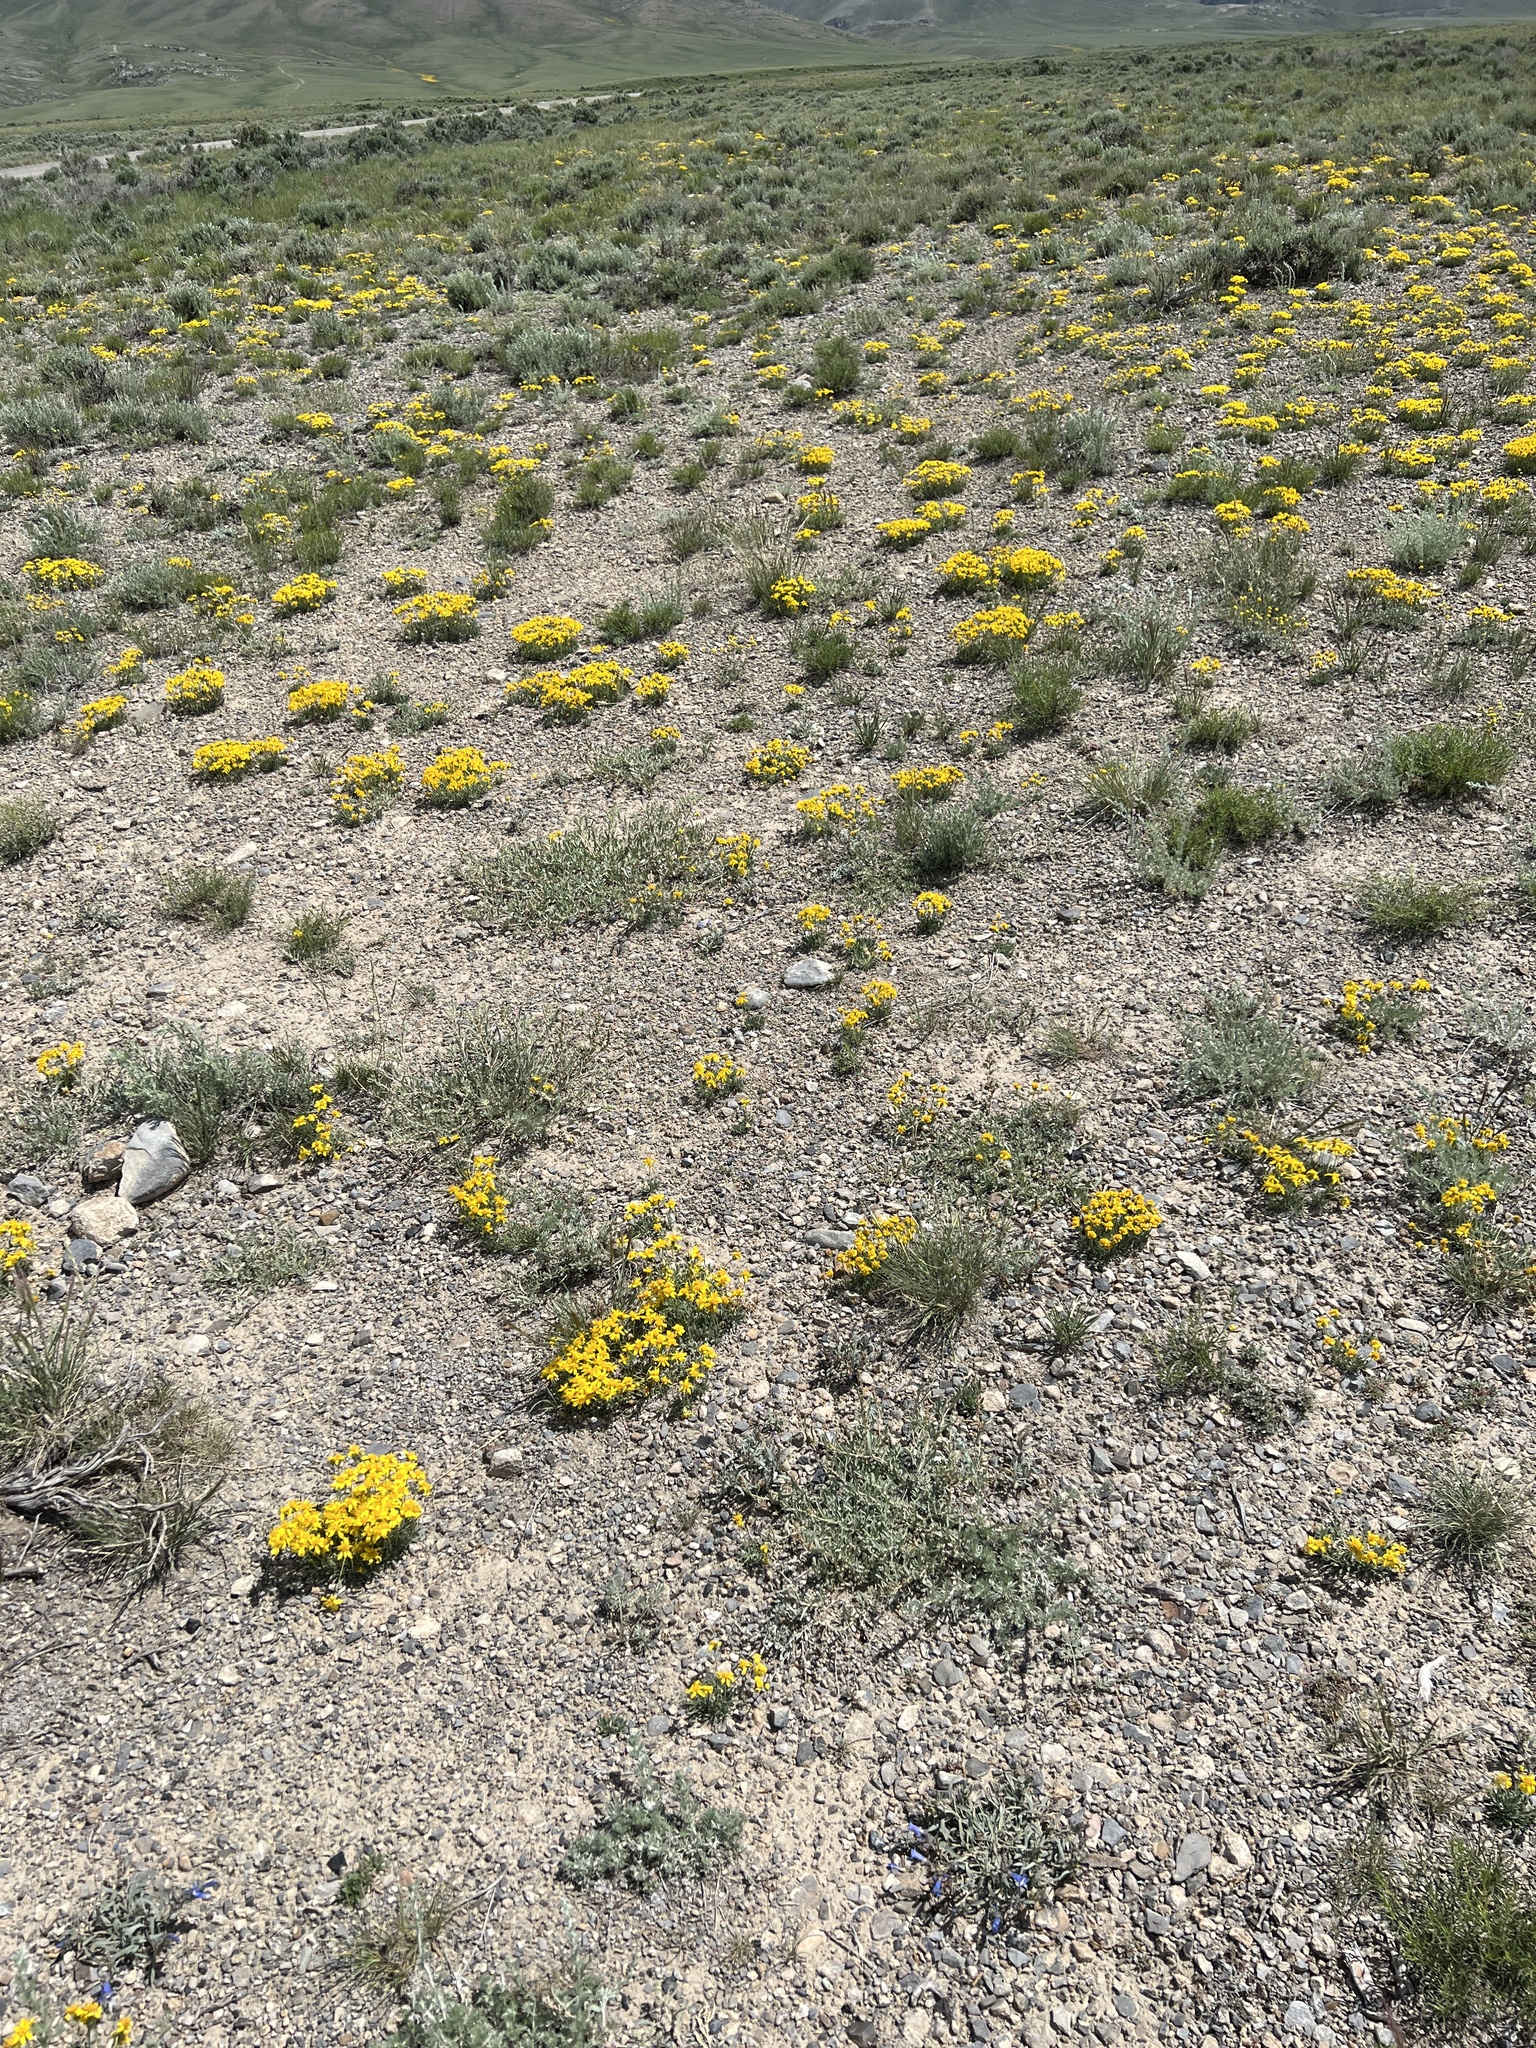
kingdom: Plantae
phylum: Tracheophyta
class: Magnoliopsida
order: Asterales
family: Asteraceae
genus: Stenotus
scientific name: Stenotus acaulis
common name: Stemless goldenweed
